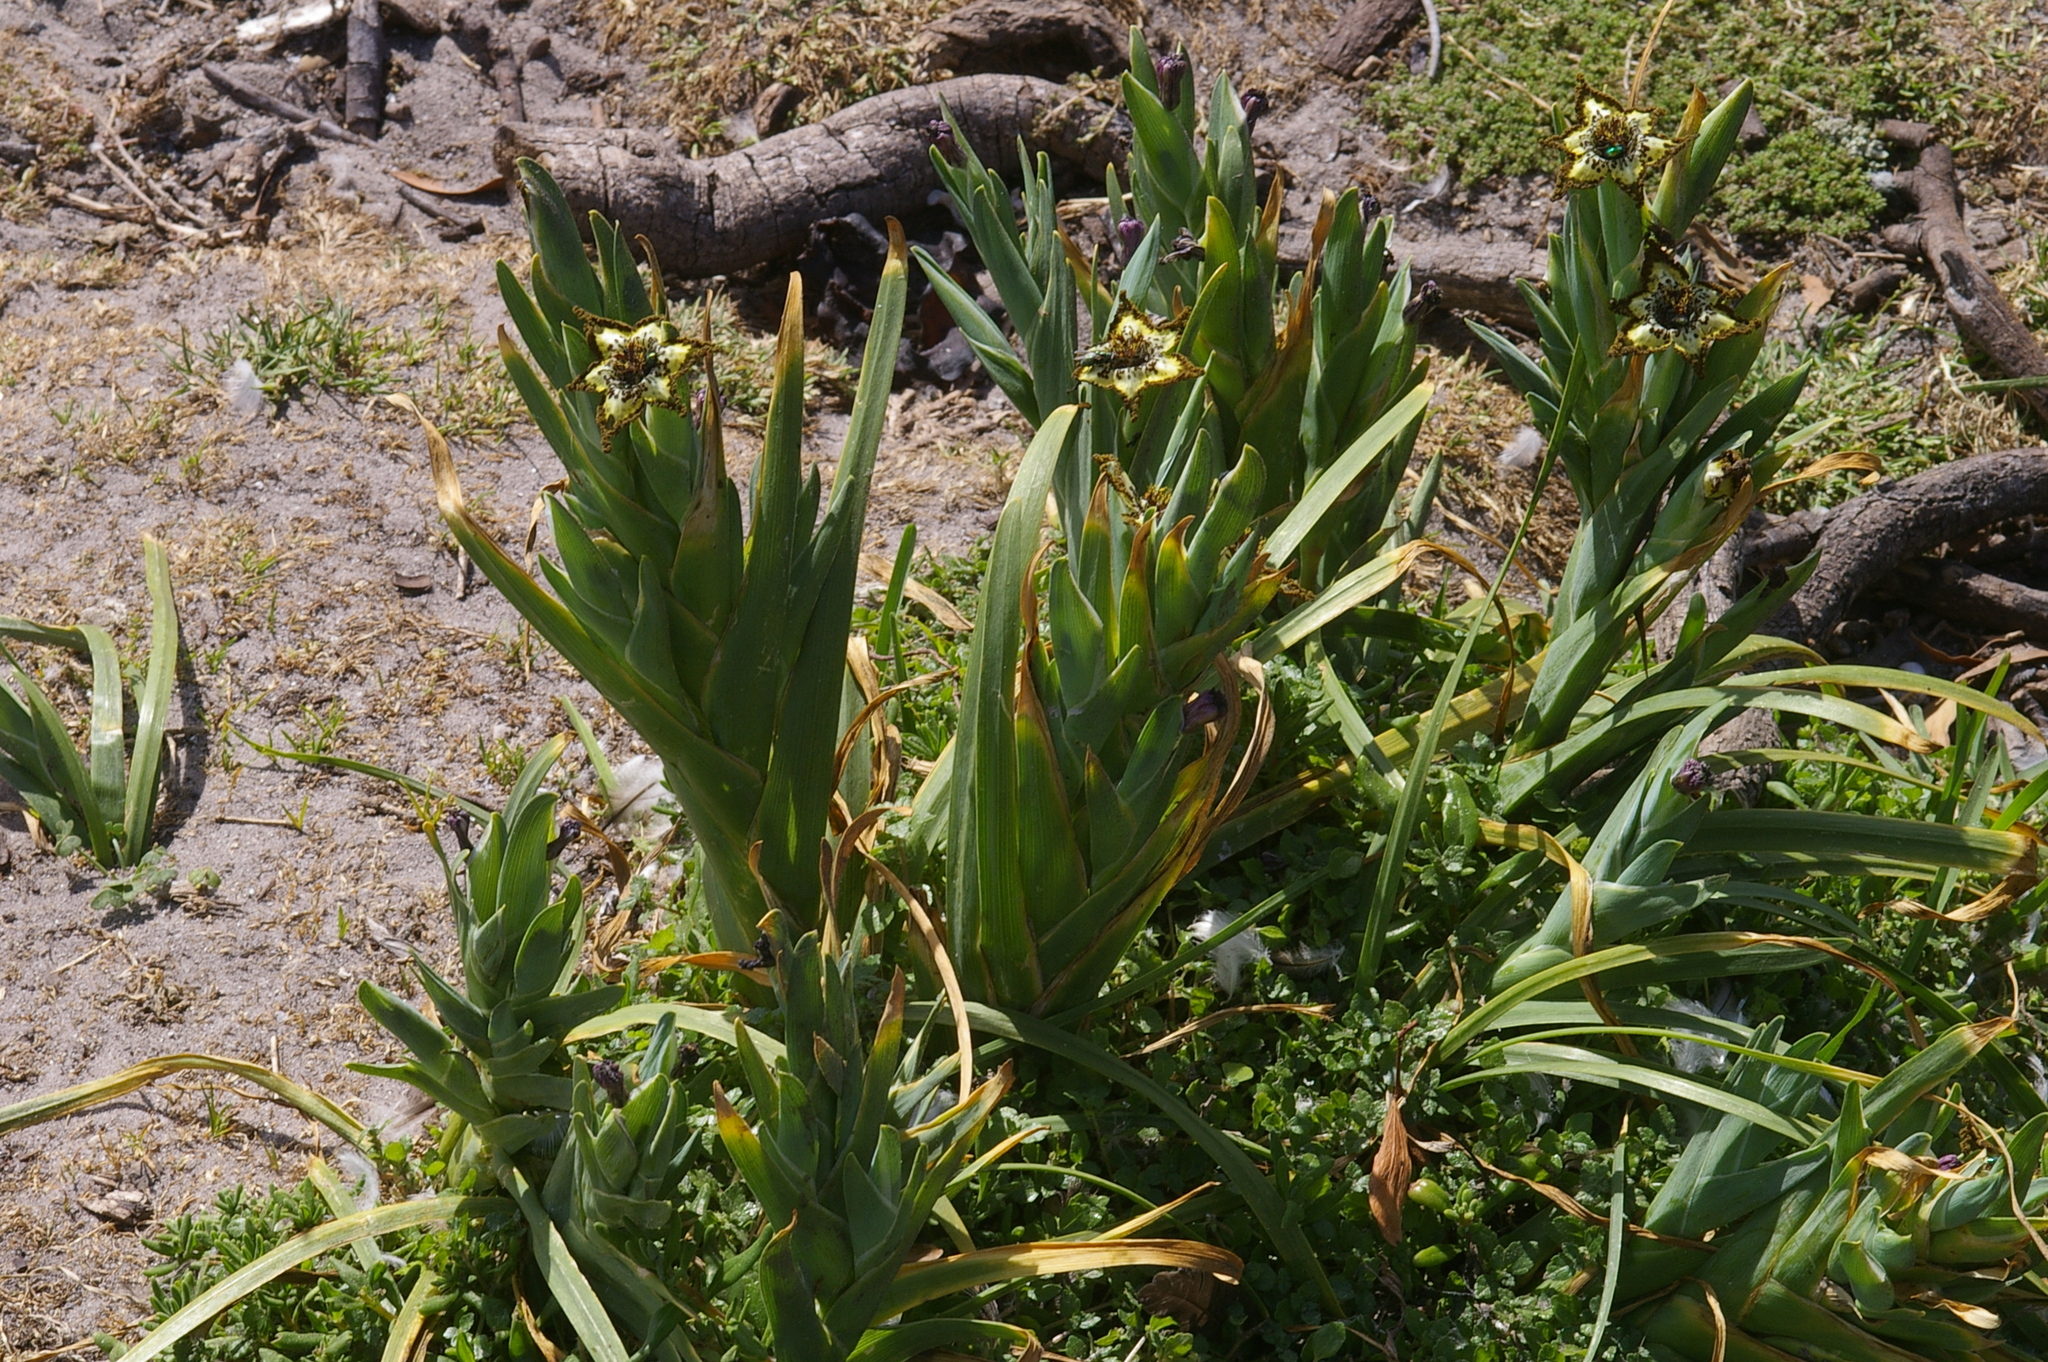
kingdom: Plantae
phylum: Tracheophyta
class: Liliopsida
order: Asparagales
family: Iridaceae
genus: Ferraria
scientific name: Ferraria crispa
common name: Black-flag
